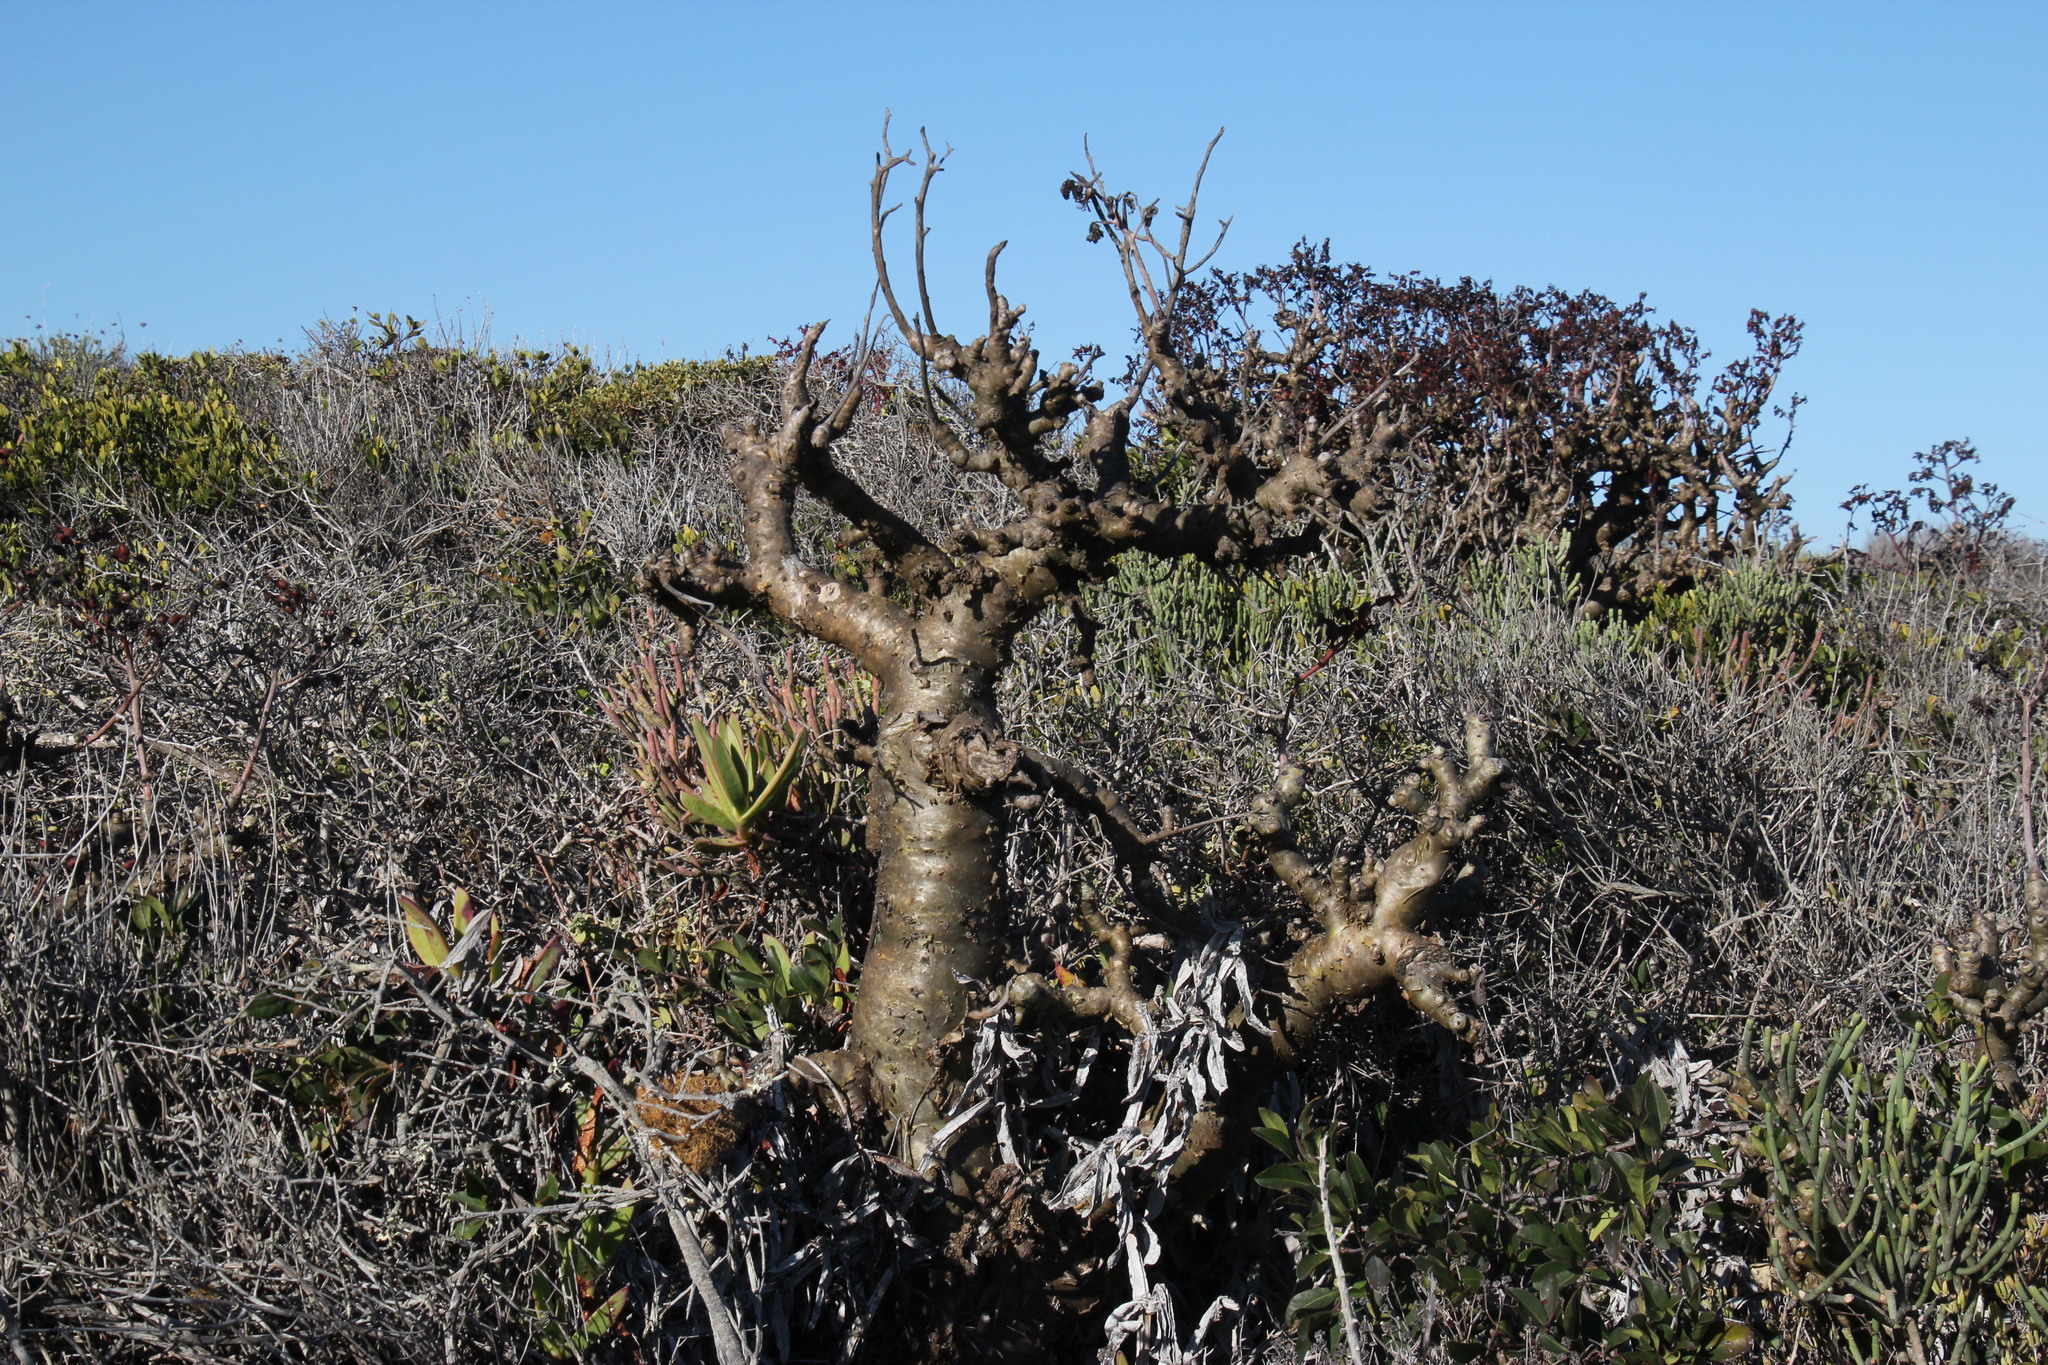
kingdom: Plantae
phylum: Tracheophyta
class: Magnoliopsida
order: Saxifragales
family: Crassulaceae
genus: Tylecodon
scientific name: Tylecodon paniculatus
